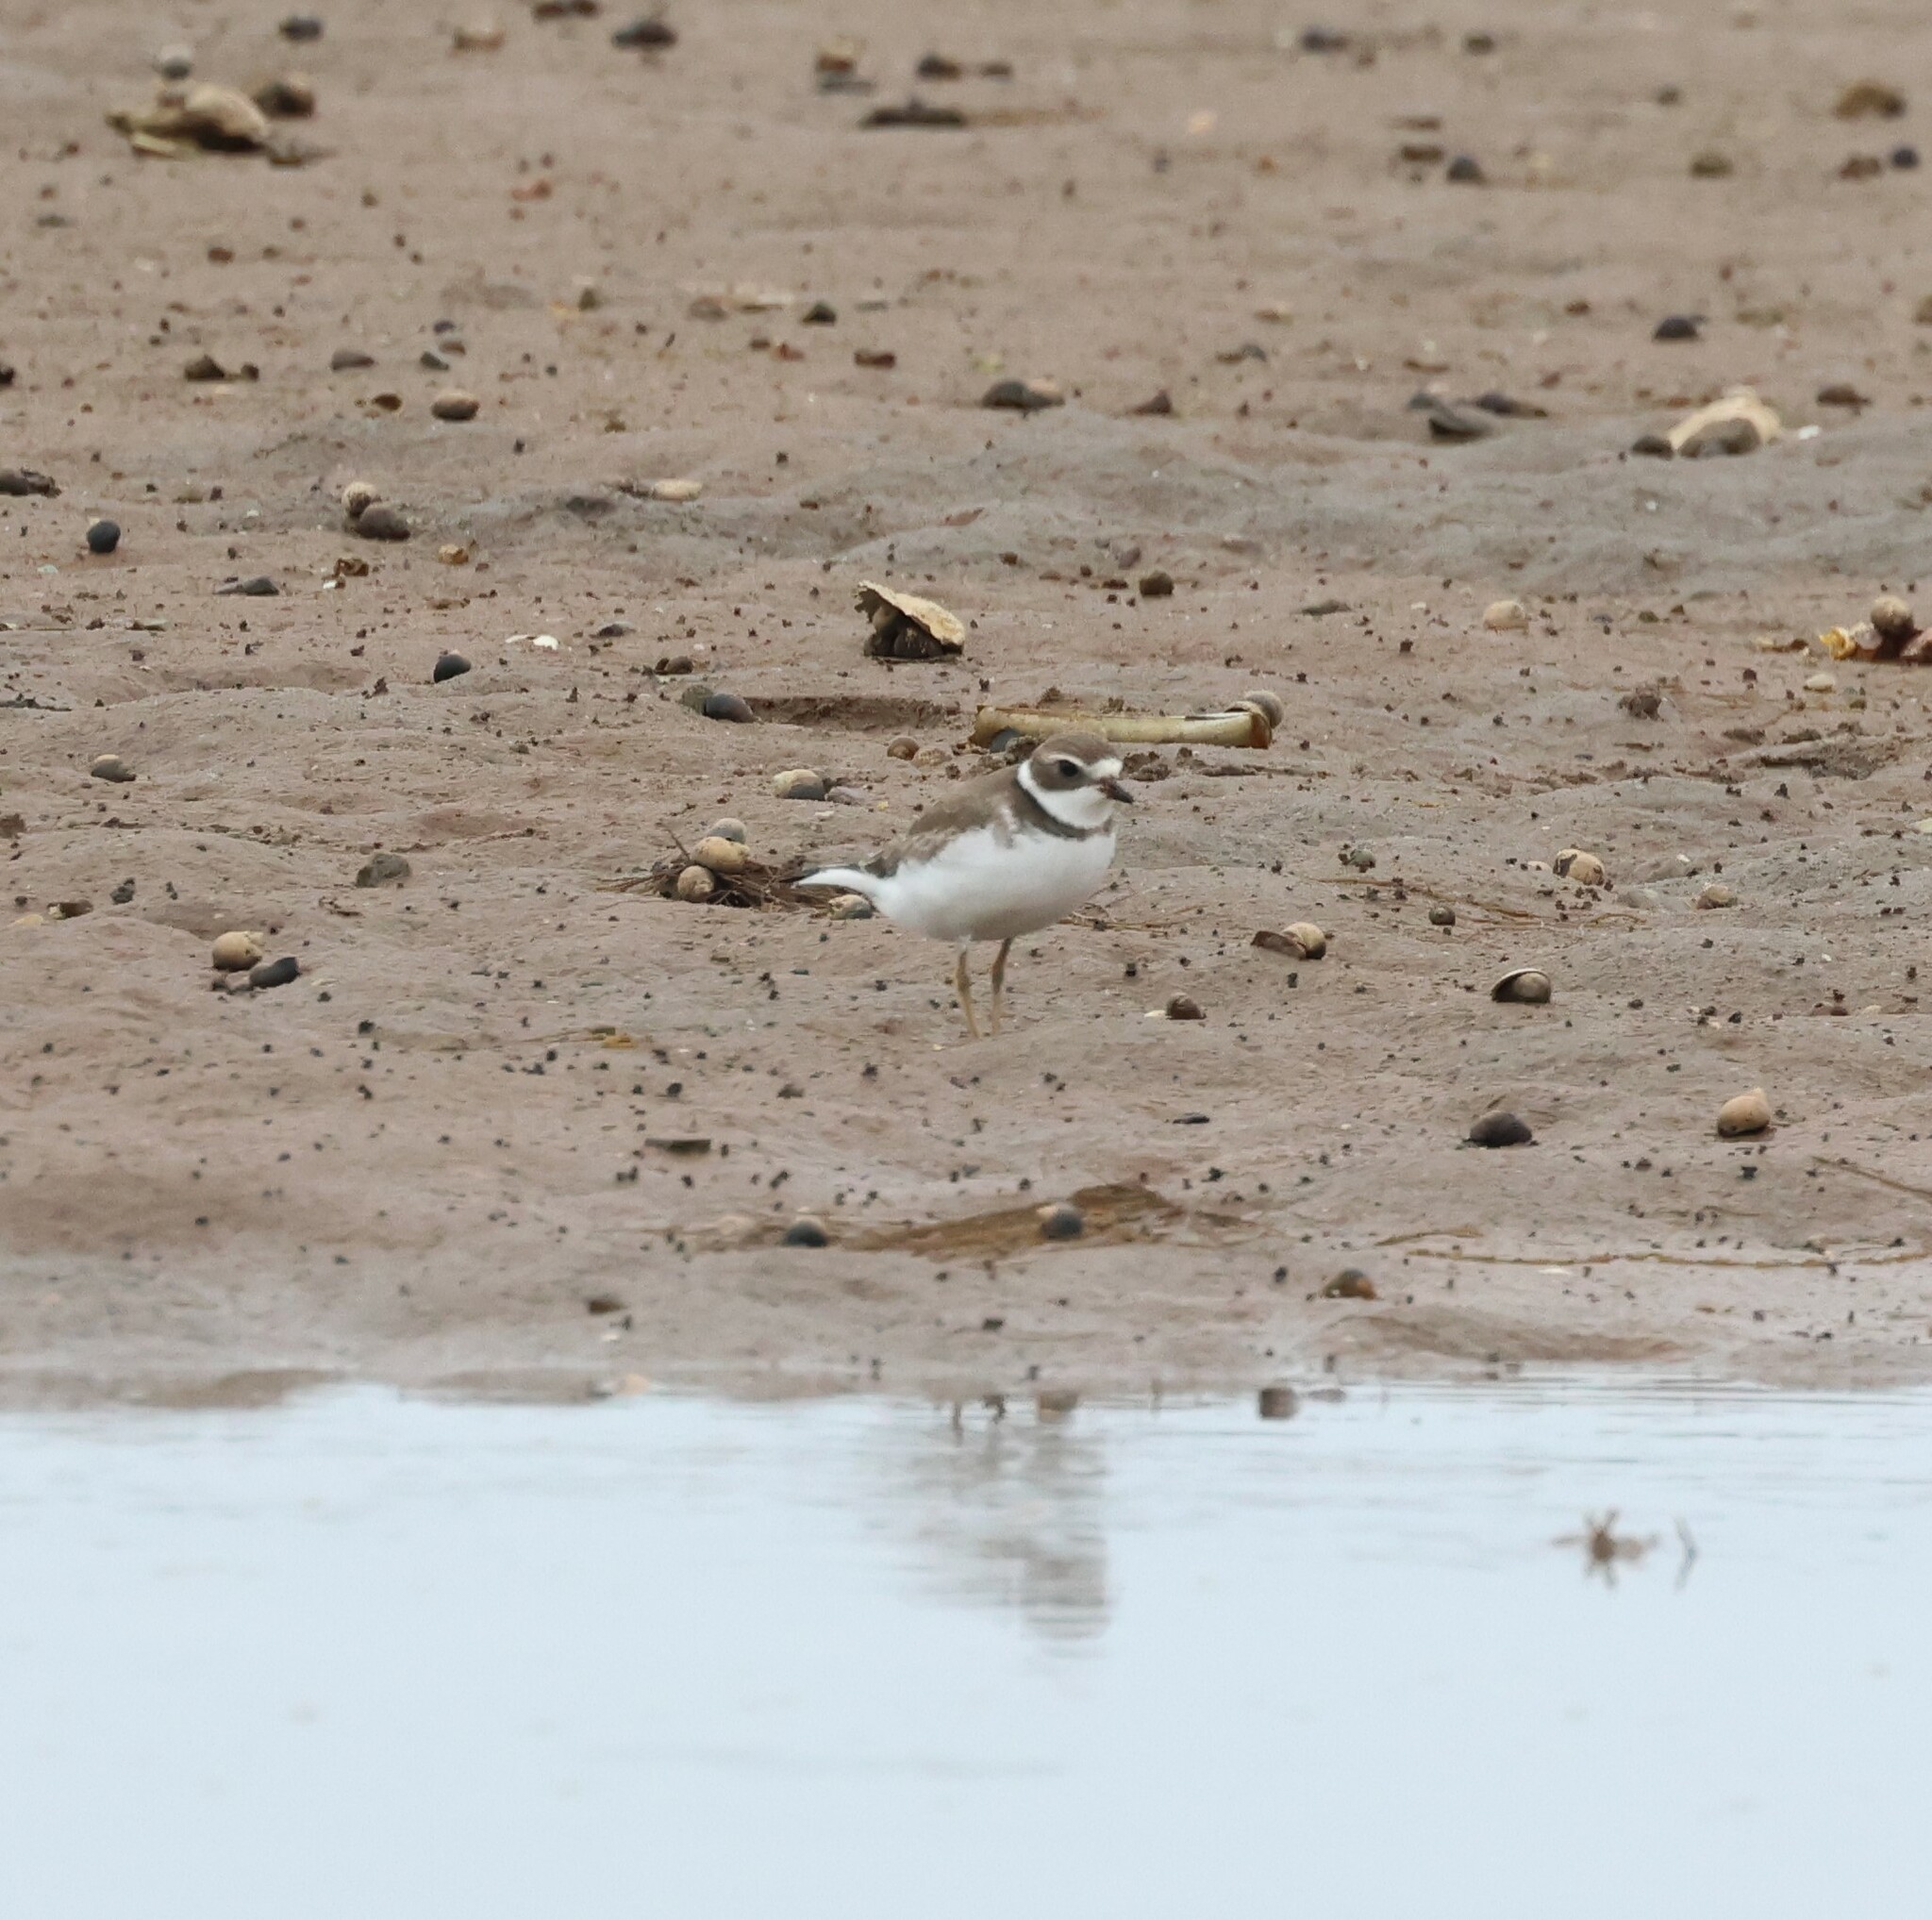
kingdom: Animalia
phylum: Chordata
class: Aves
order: Charadriiformes
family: Charadriidae
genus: Charadrius
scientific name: Charadrius semipalmatus
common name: Semipalmated plover
